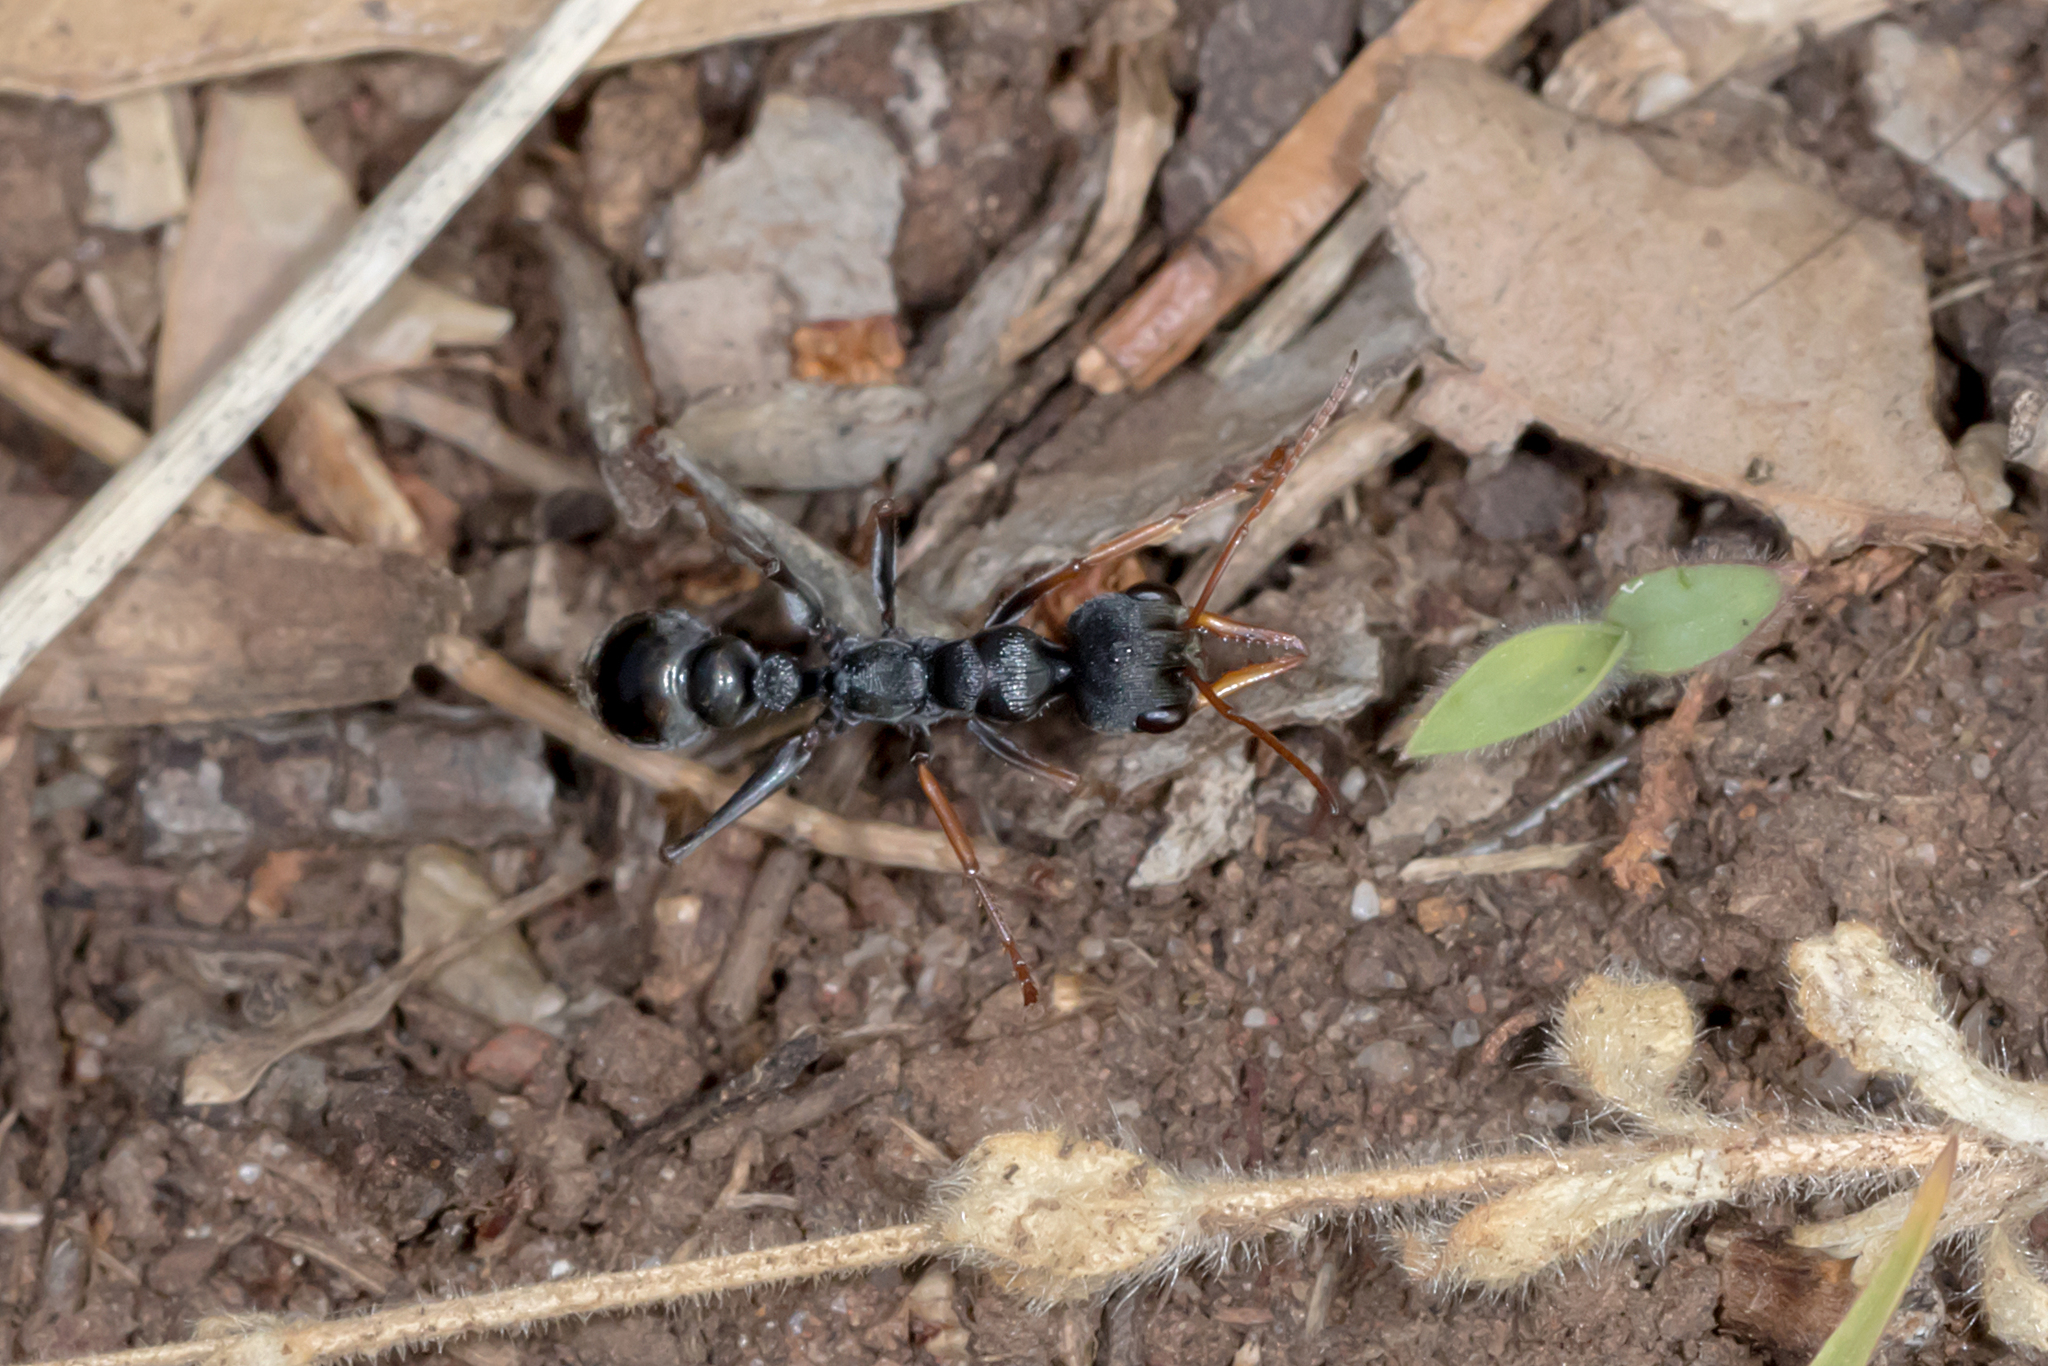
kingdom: Animalia
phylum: Arthropoda
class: Insecta
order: Hymenoptera
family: Formicidae
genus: Myrmecia
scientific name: Myrmecia pilosula
